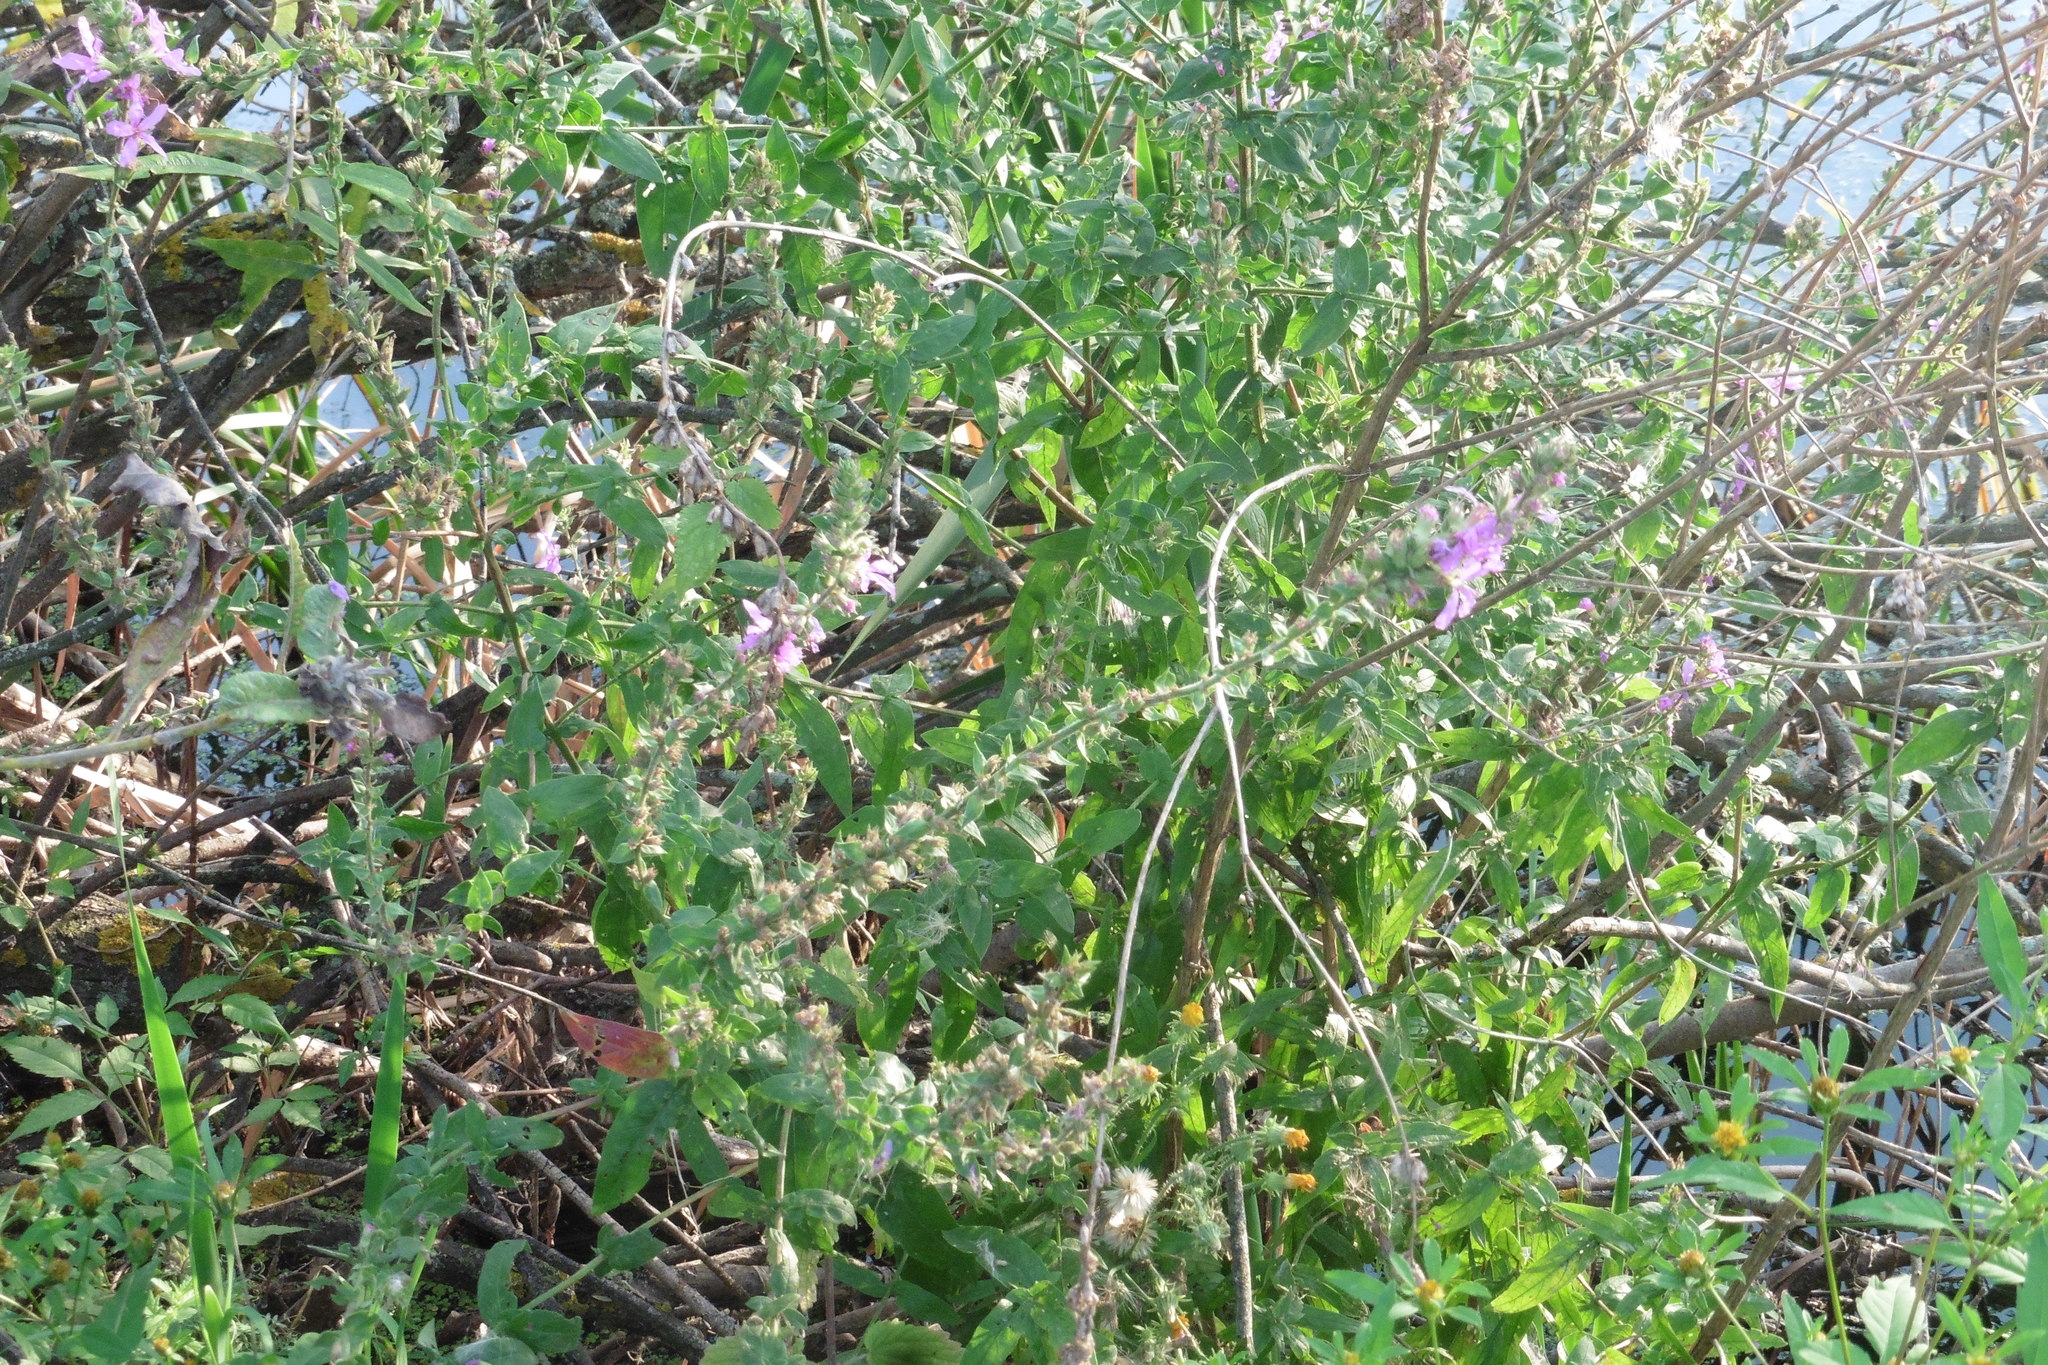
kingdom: Plantae
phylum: Tracheophyta
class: Magnoliopsida
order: Myrtales
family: Lythraceae
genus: Lythrum
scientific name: Lythrum salicaria
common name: Purple loosestrife
